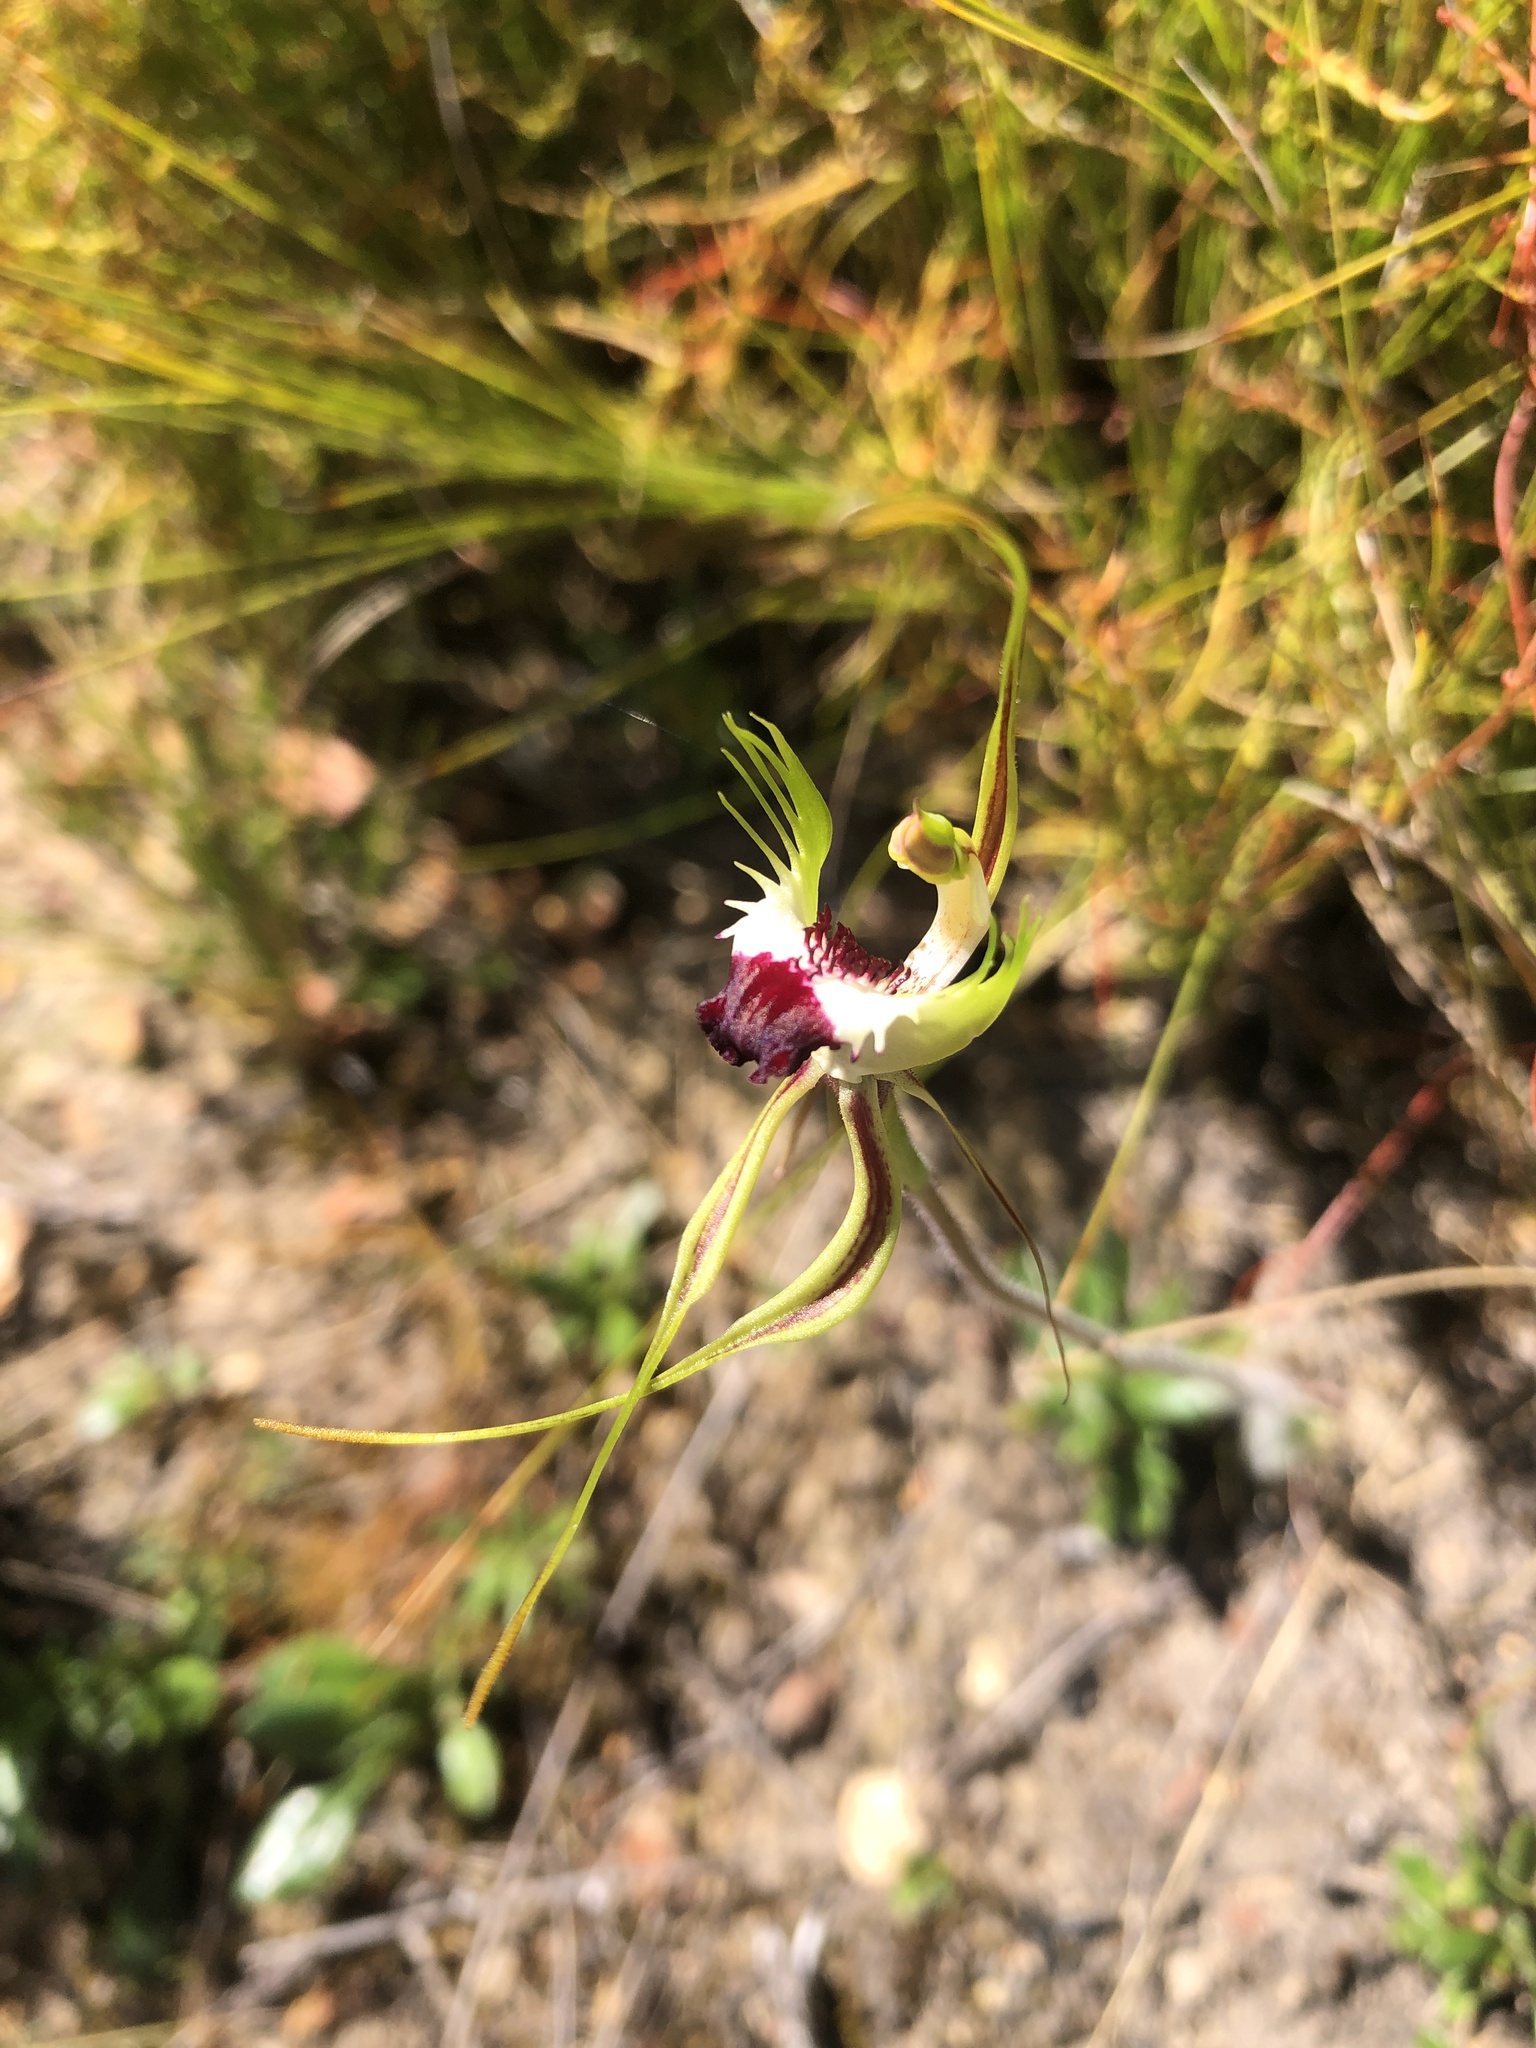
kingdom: Plantae
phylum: Tracheophyta
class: Liliopsida
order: Asparagales
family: Orchidaceae
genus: Caladenia
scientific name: Caladenia tentaculata
